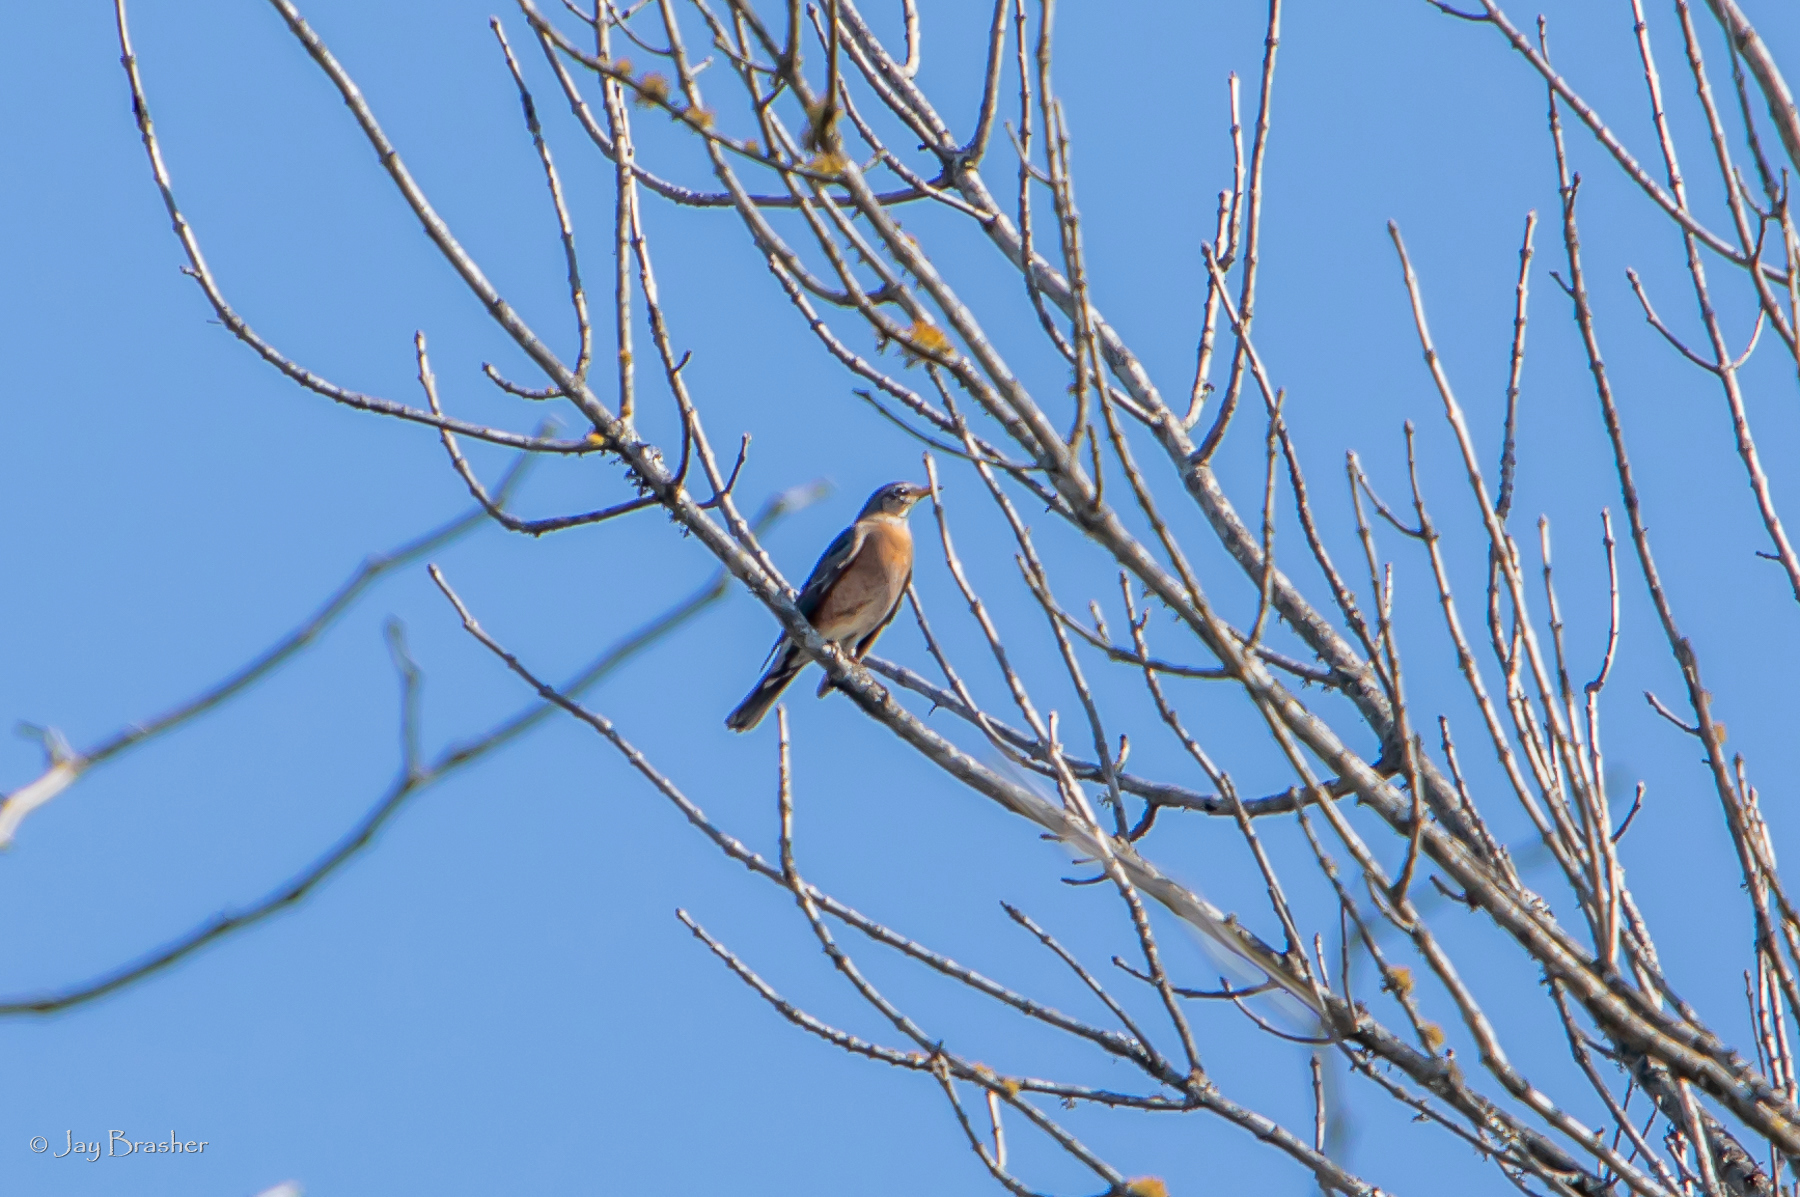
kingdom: Animalia
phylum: Chordata
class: Aves
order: Passeriformes
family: Turdidae
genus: Turdus
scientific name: Turdus migratorius
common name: American robin
